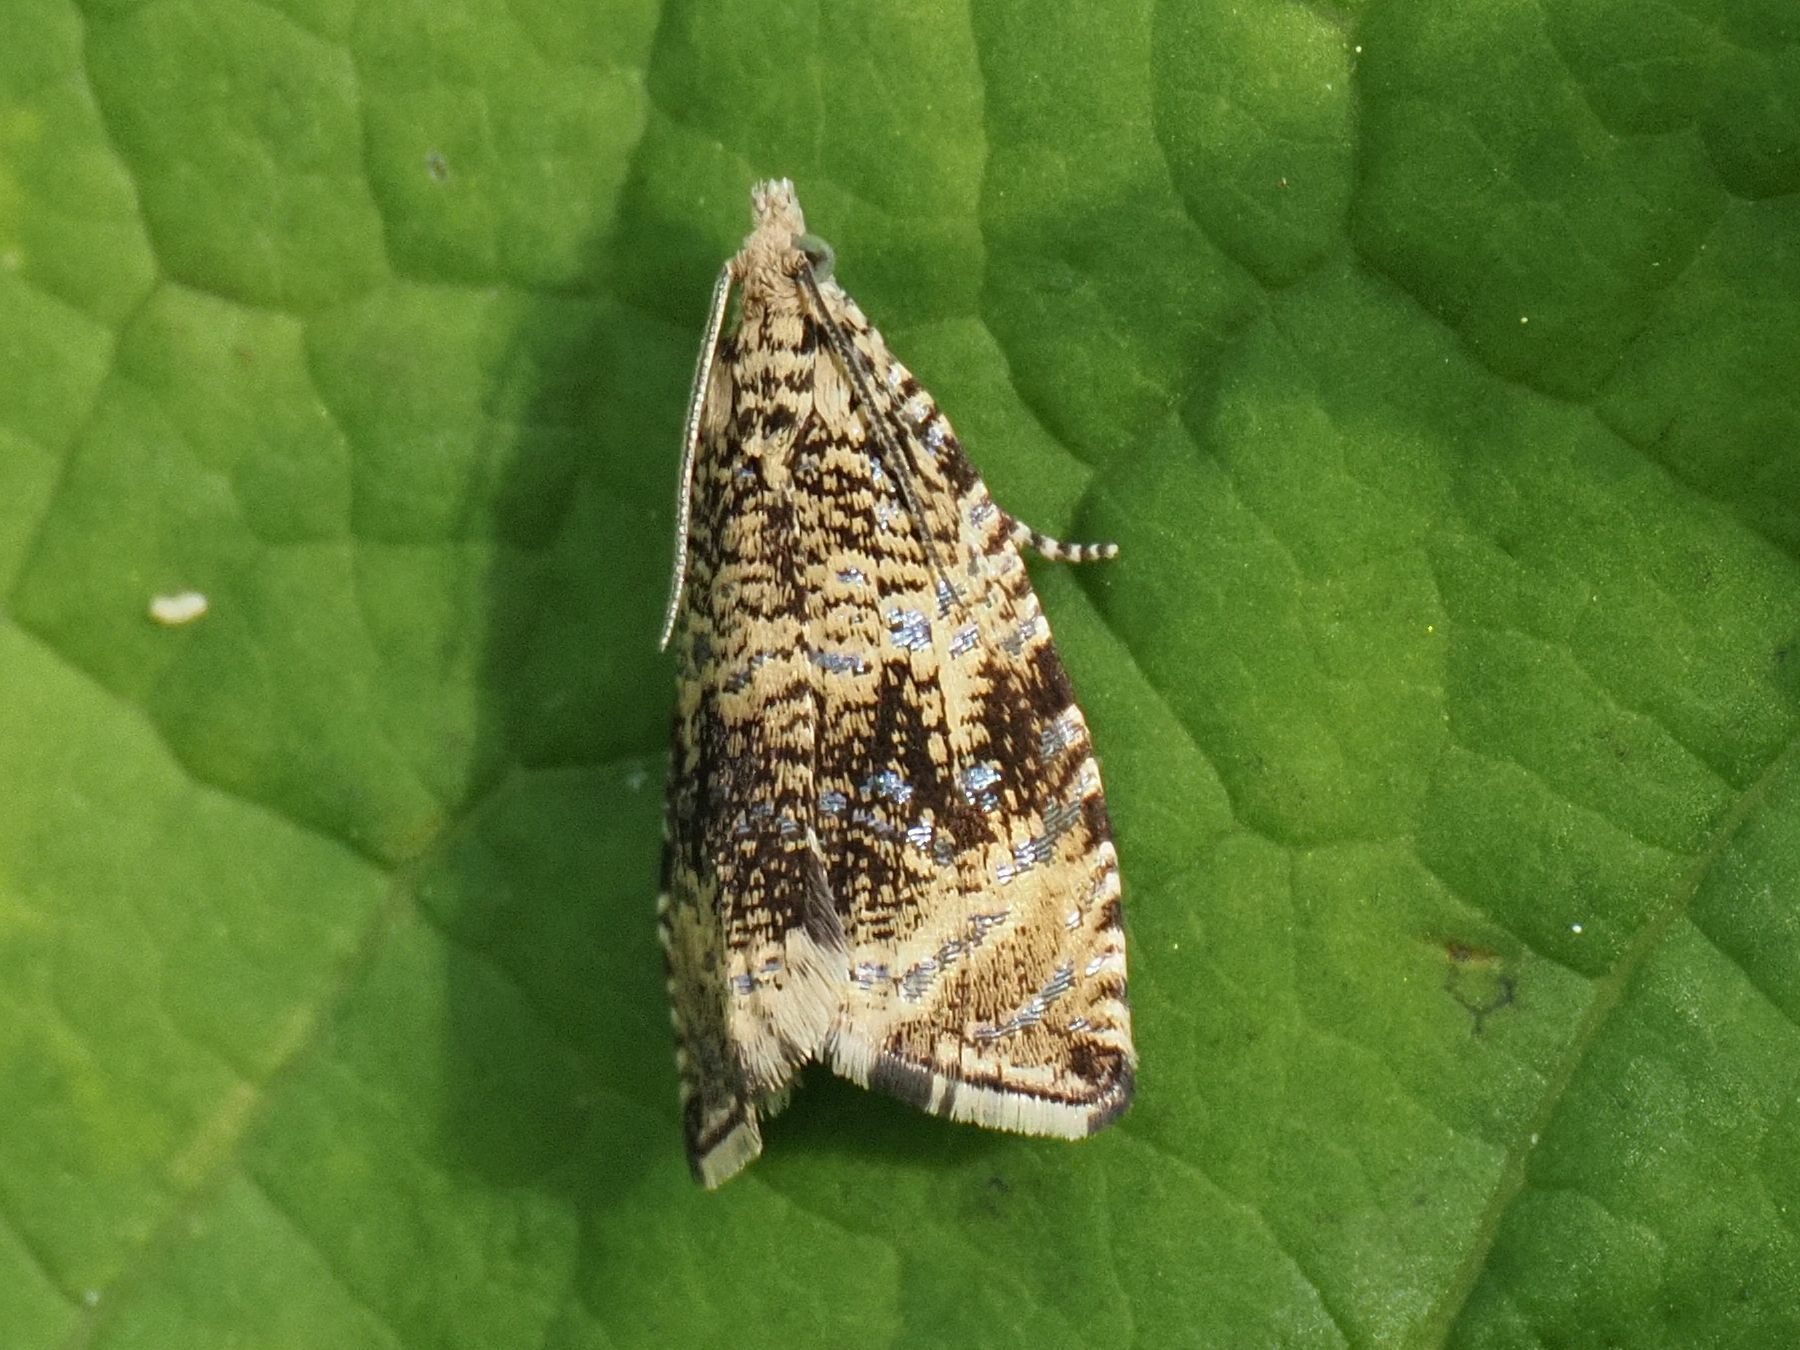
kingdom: Animalia
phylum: Arthropoda
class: Insecta
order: Lepidoptera
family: Tortricidae
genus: Syricoris
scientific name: Syricoris lacunana
